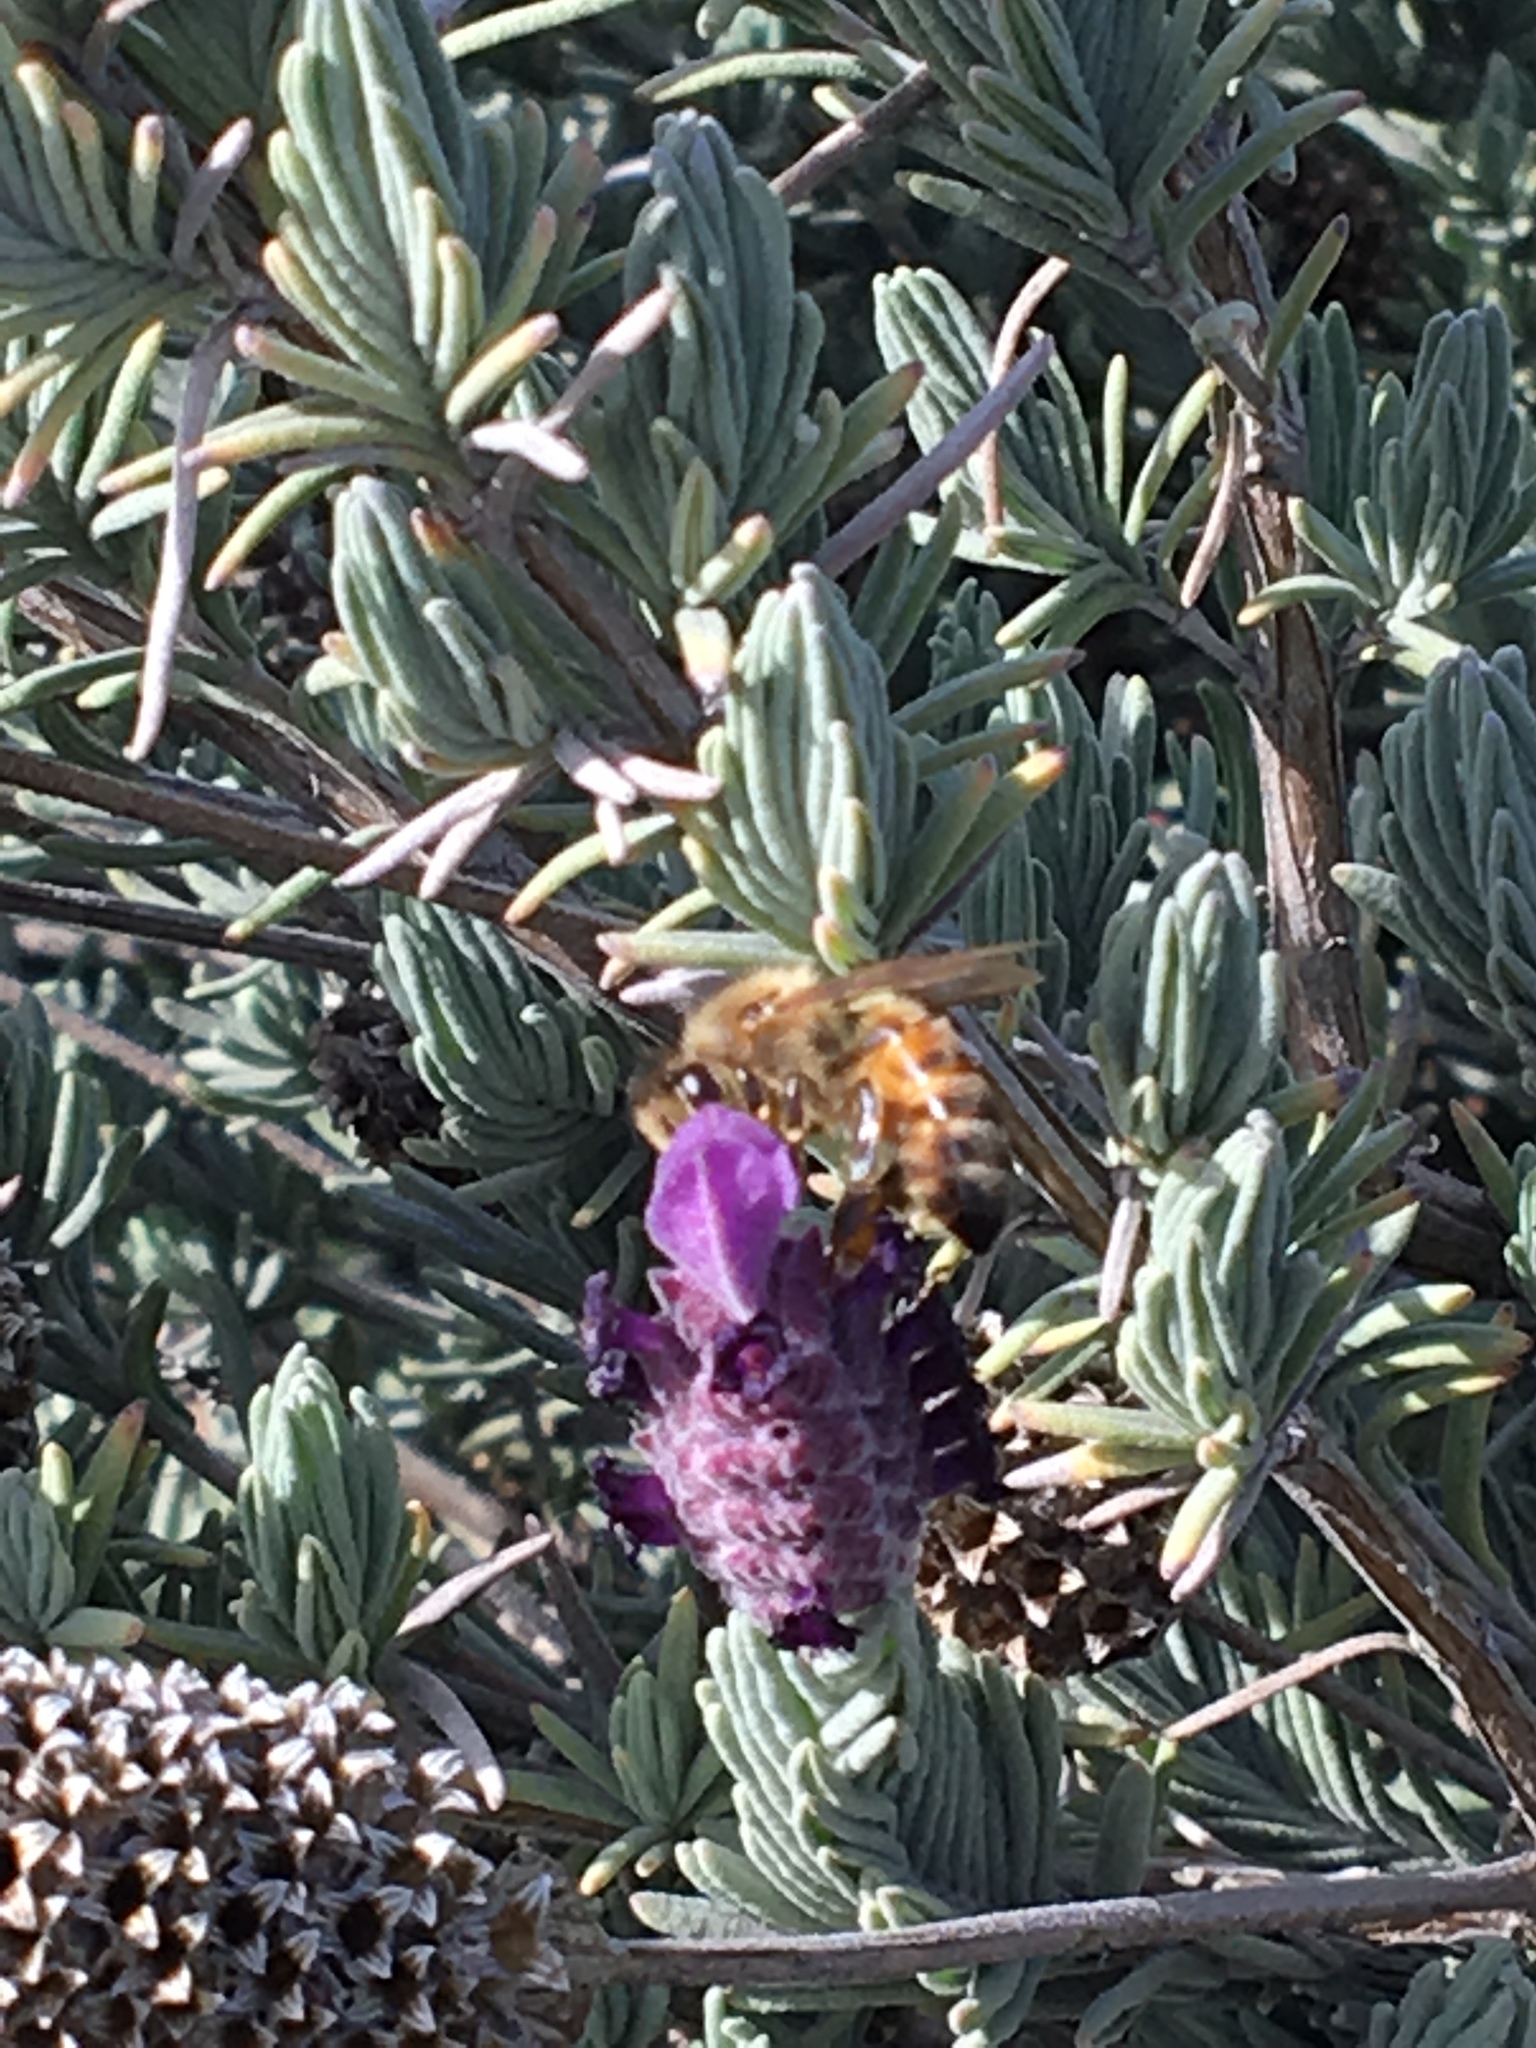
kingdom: Animalia
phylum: Arthropoda
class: Insecta
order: Hymenoptera
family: Apidae
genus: Apis
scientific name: Apis mellifera
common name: Honey bee
